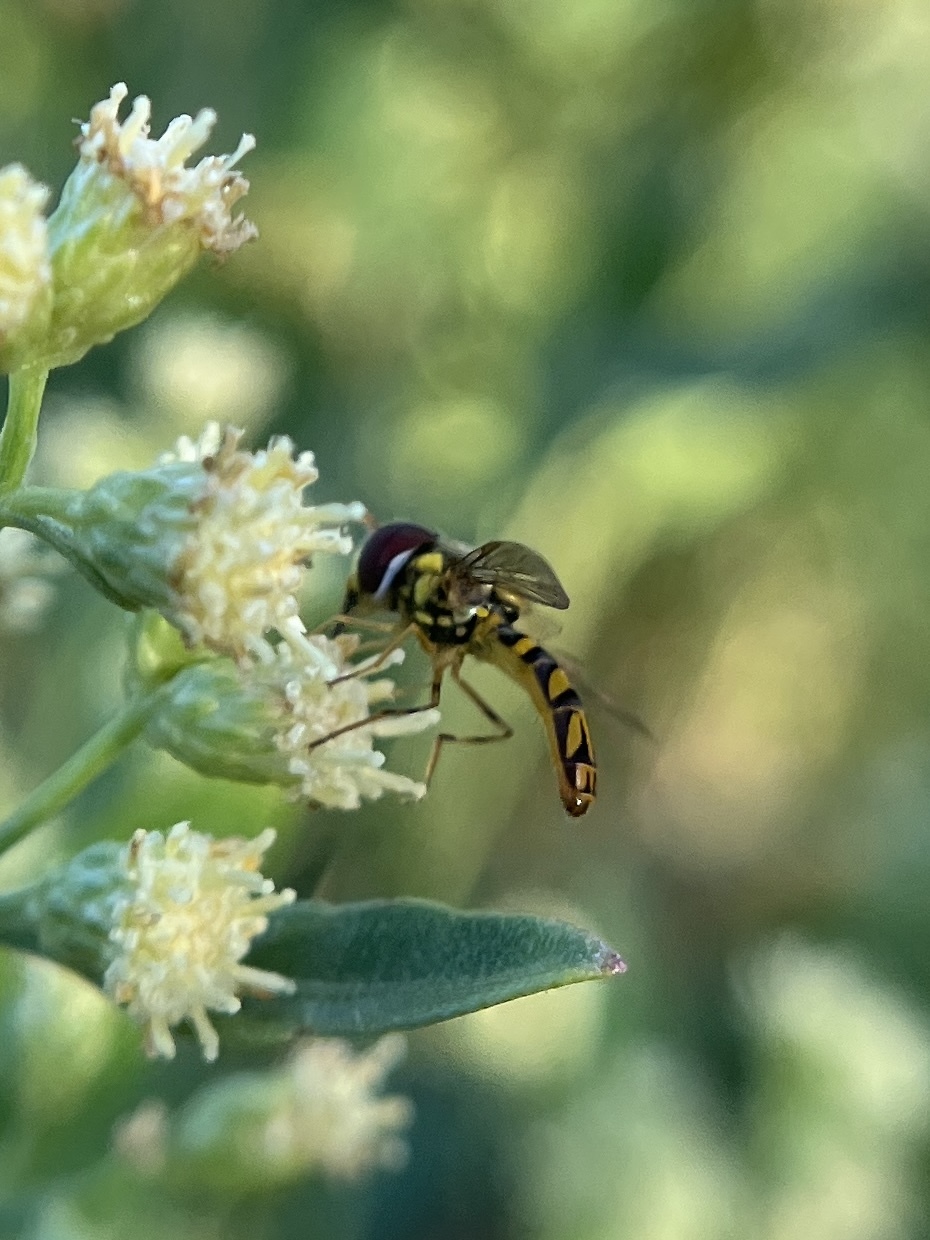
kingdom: Animalia
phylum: Arthropoda
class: Insecta
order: Diptera
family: Syrphidae
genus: Allograpta
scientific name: Allograpta obliqua
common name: Common oblique syrphid
